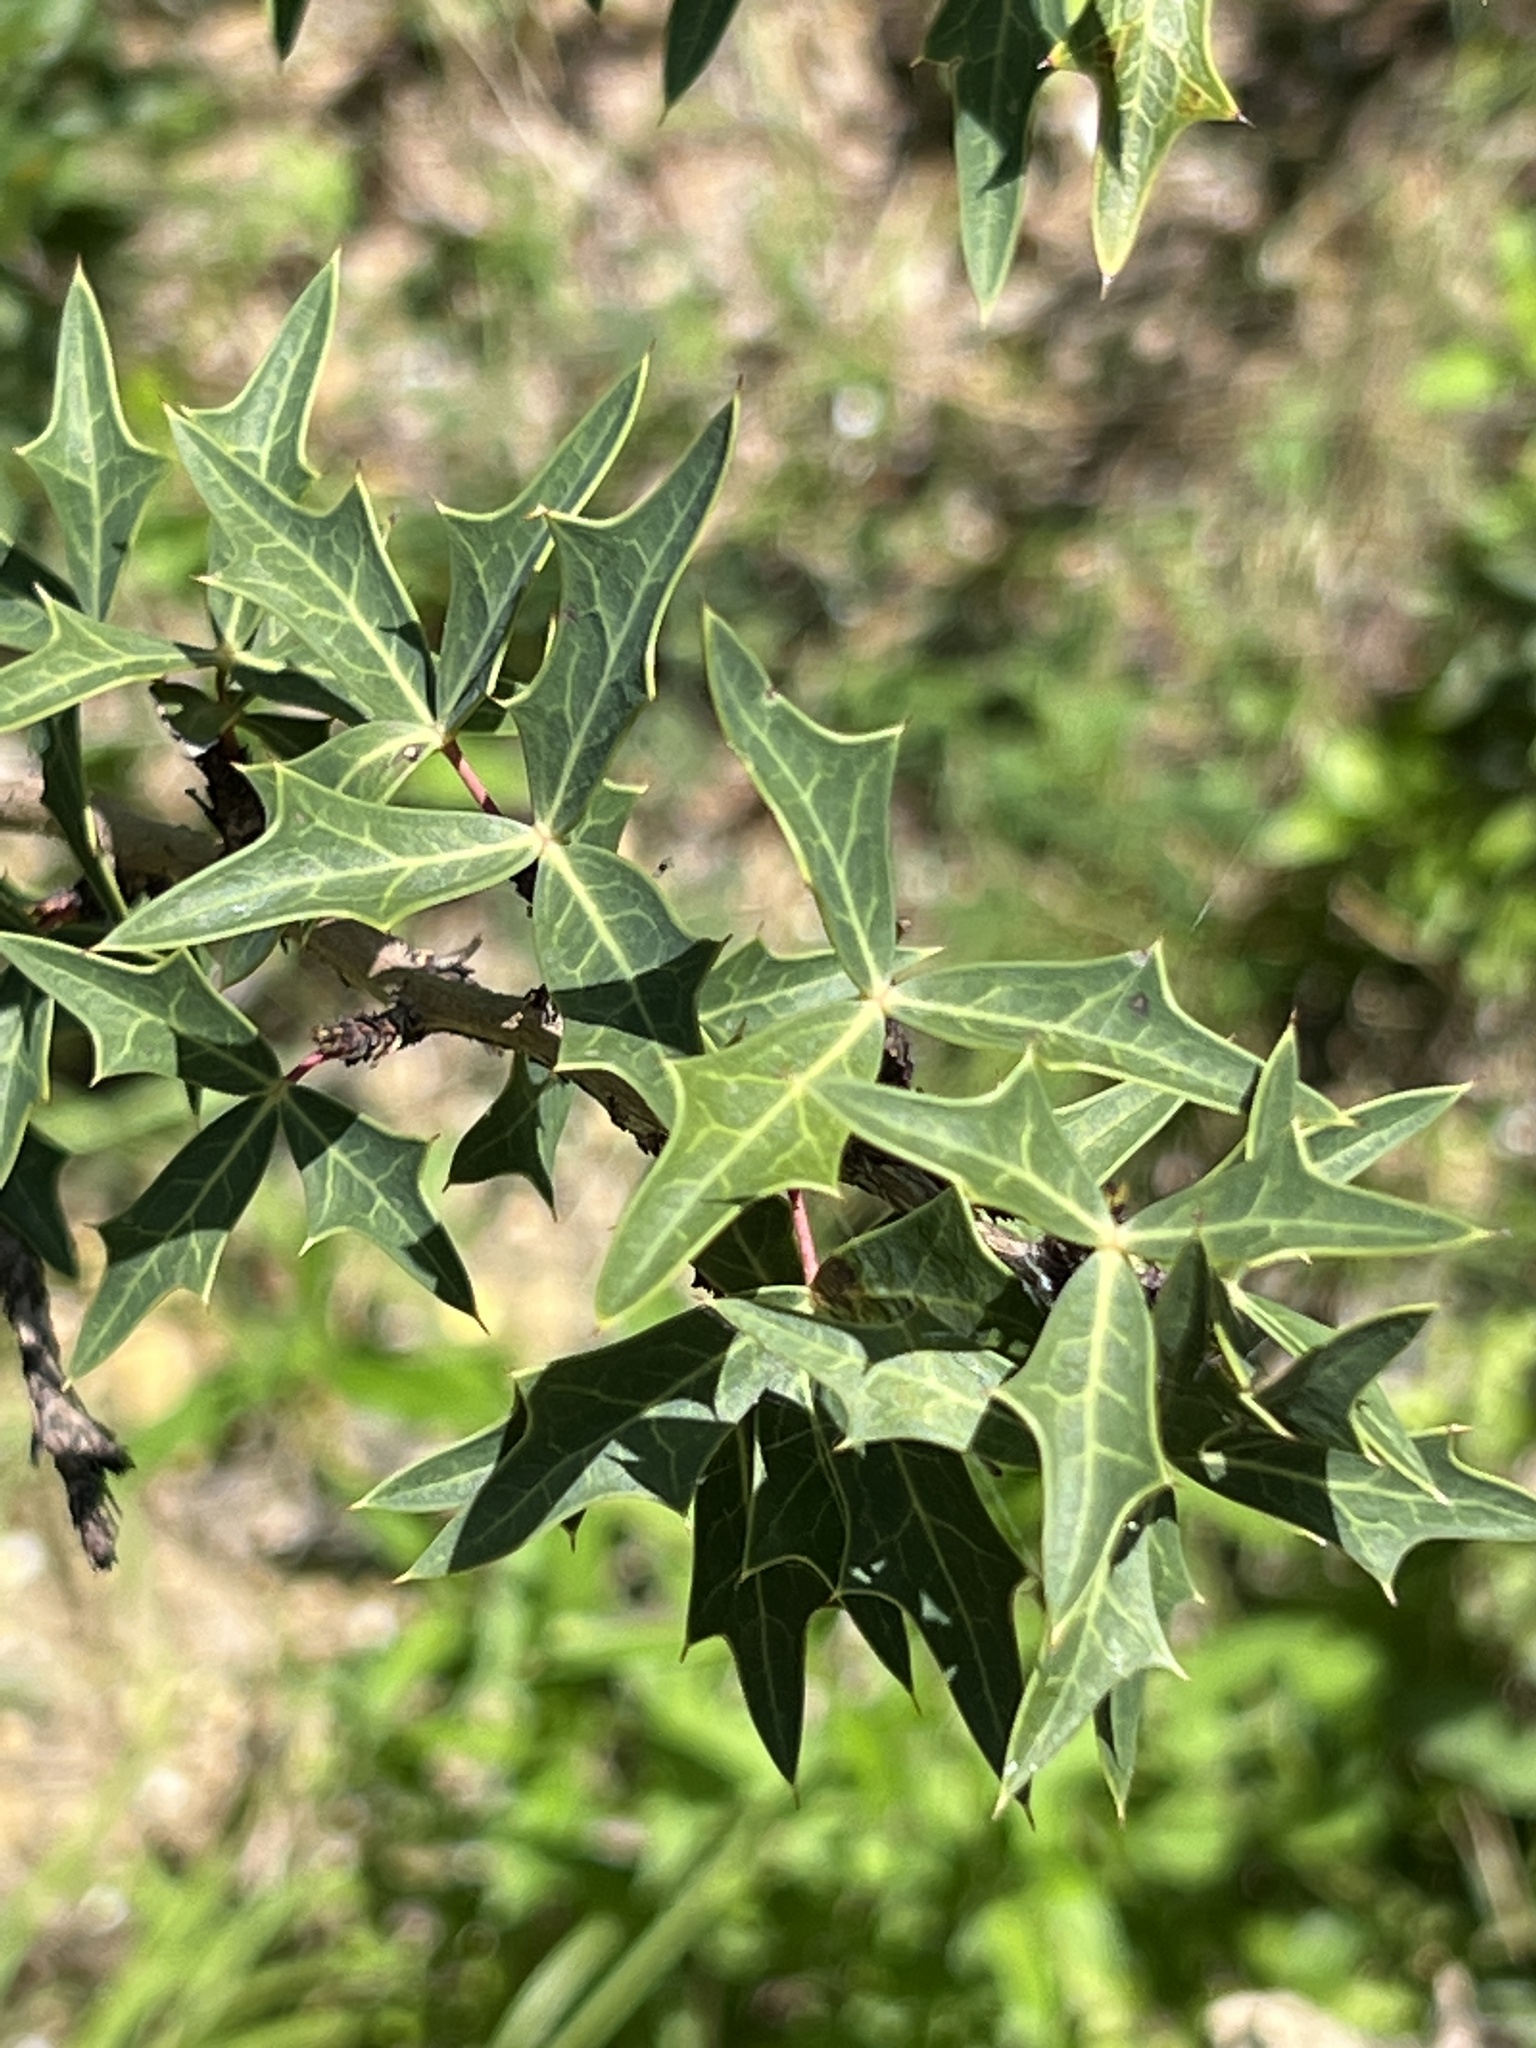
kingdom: Plantae
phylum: Tracheophyta
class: Magnoliopsida
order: Ranunculales
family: Berberidaceae
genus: Alloberberis
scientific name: Alloberberis trifoliolata
